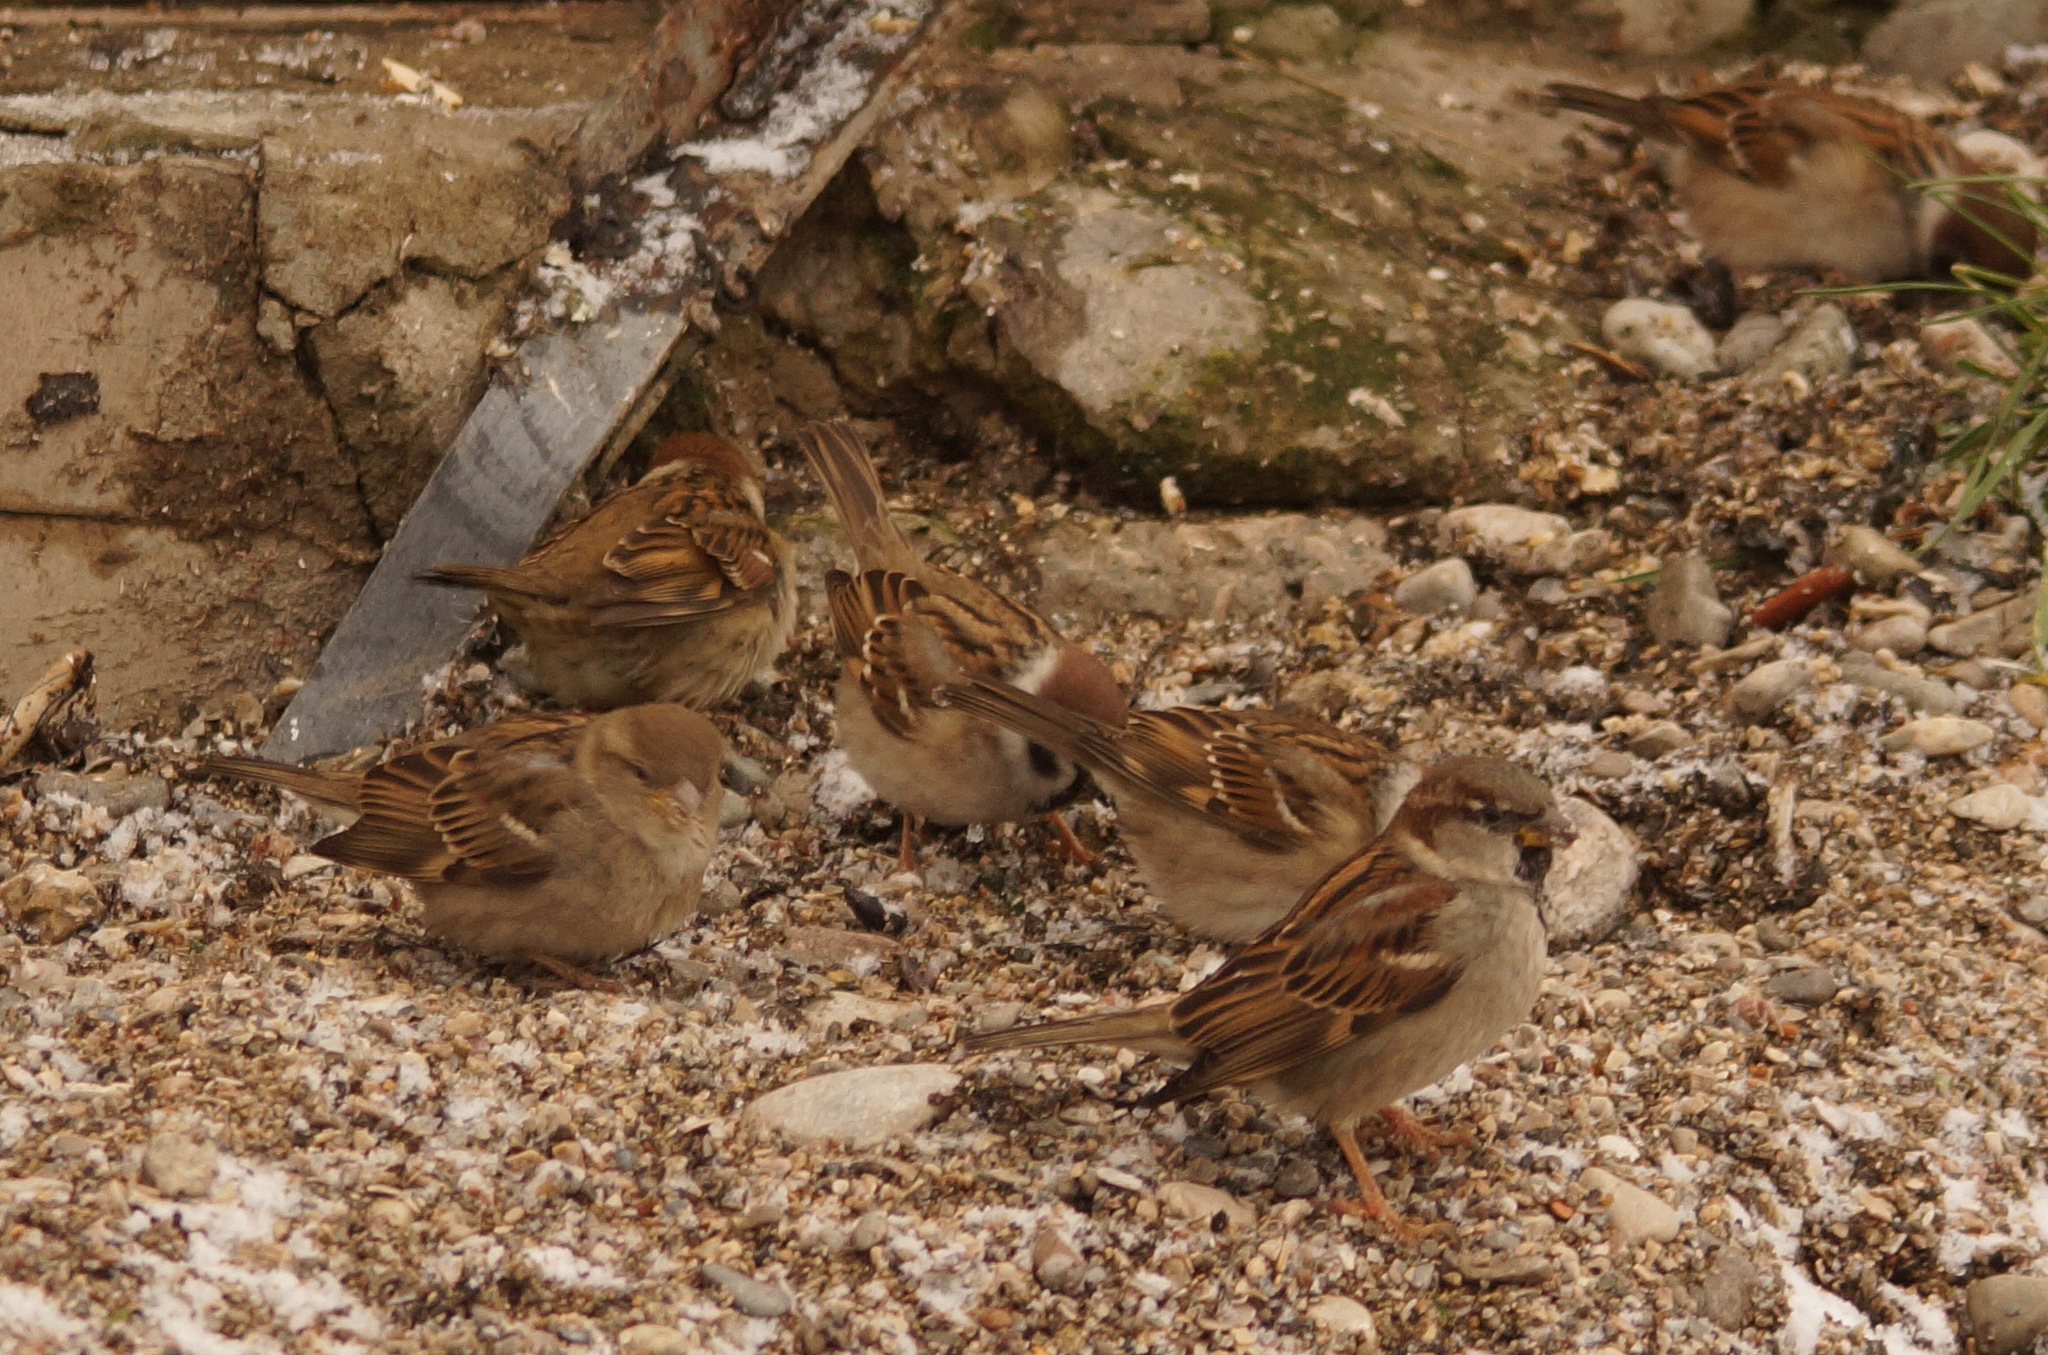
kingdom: Animalia
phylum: Chordata
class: Aves
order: Passeriformes
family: Passeridae
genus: Passer
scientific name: Passer montanus
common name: Eurasian tree sparrow
